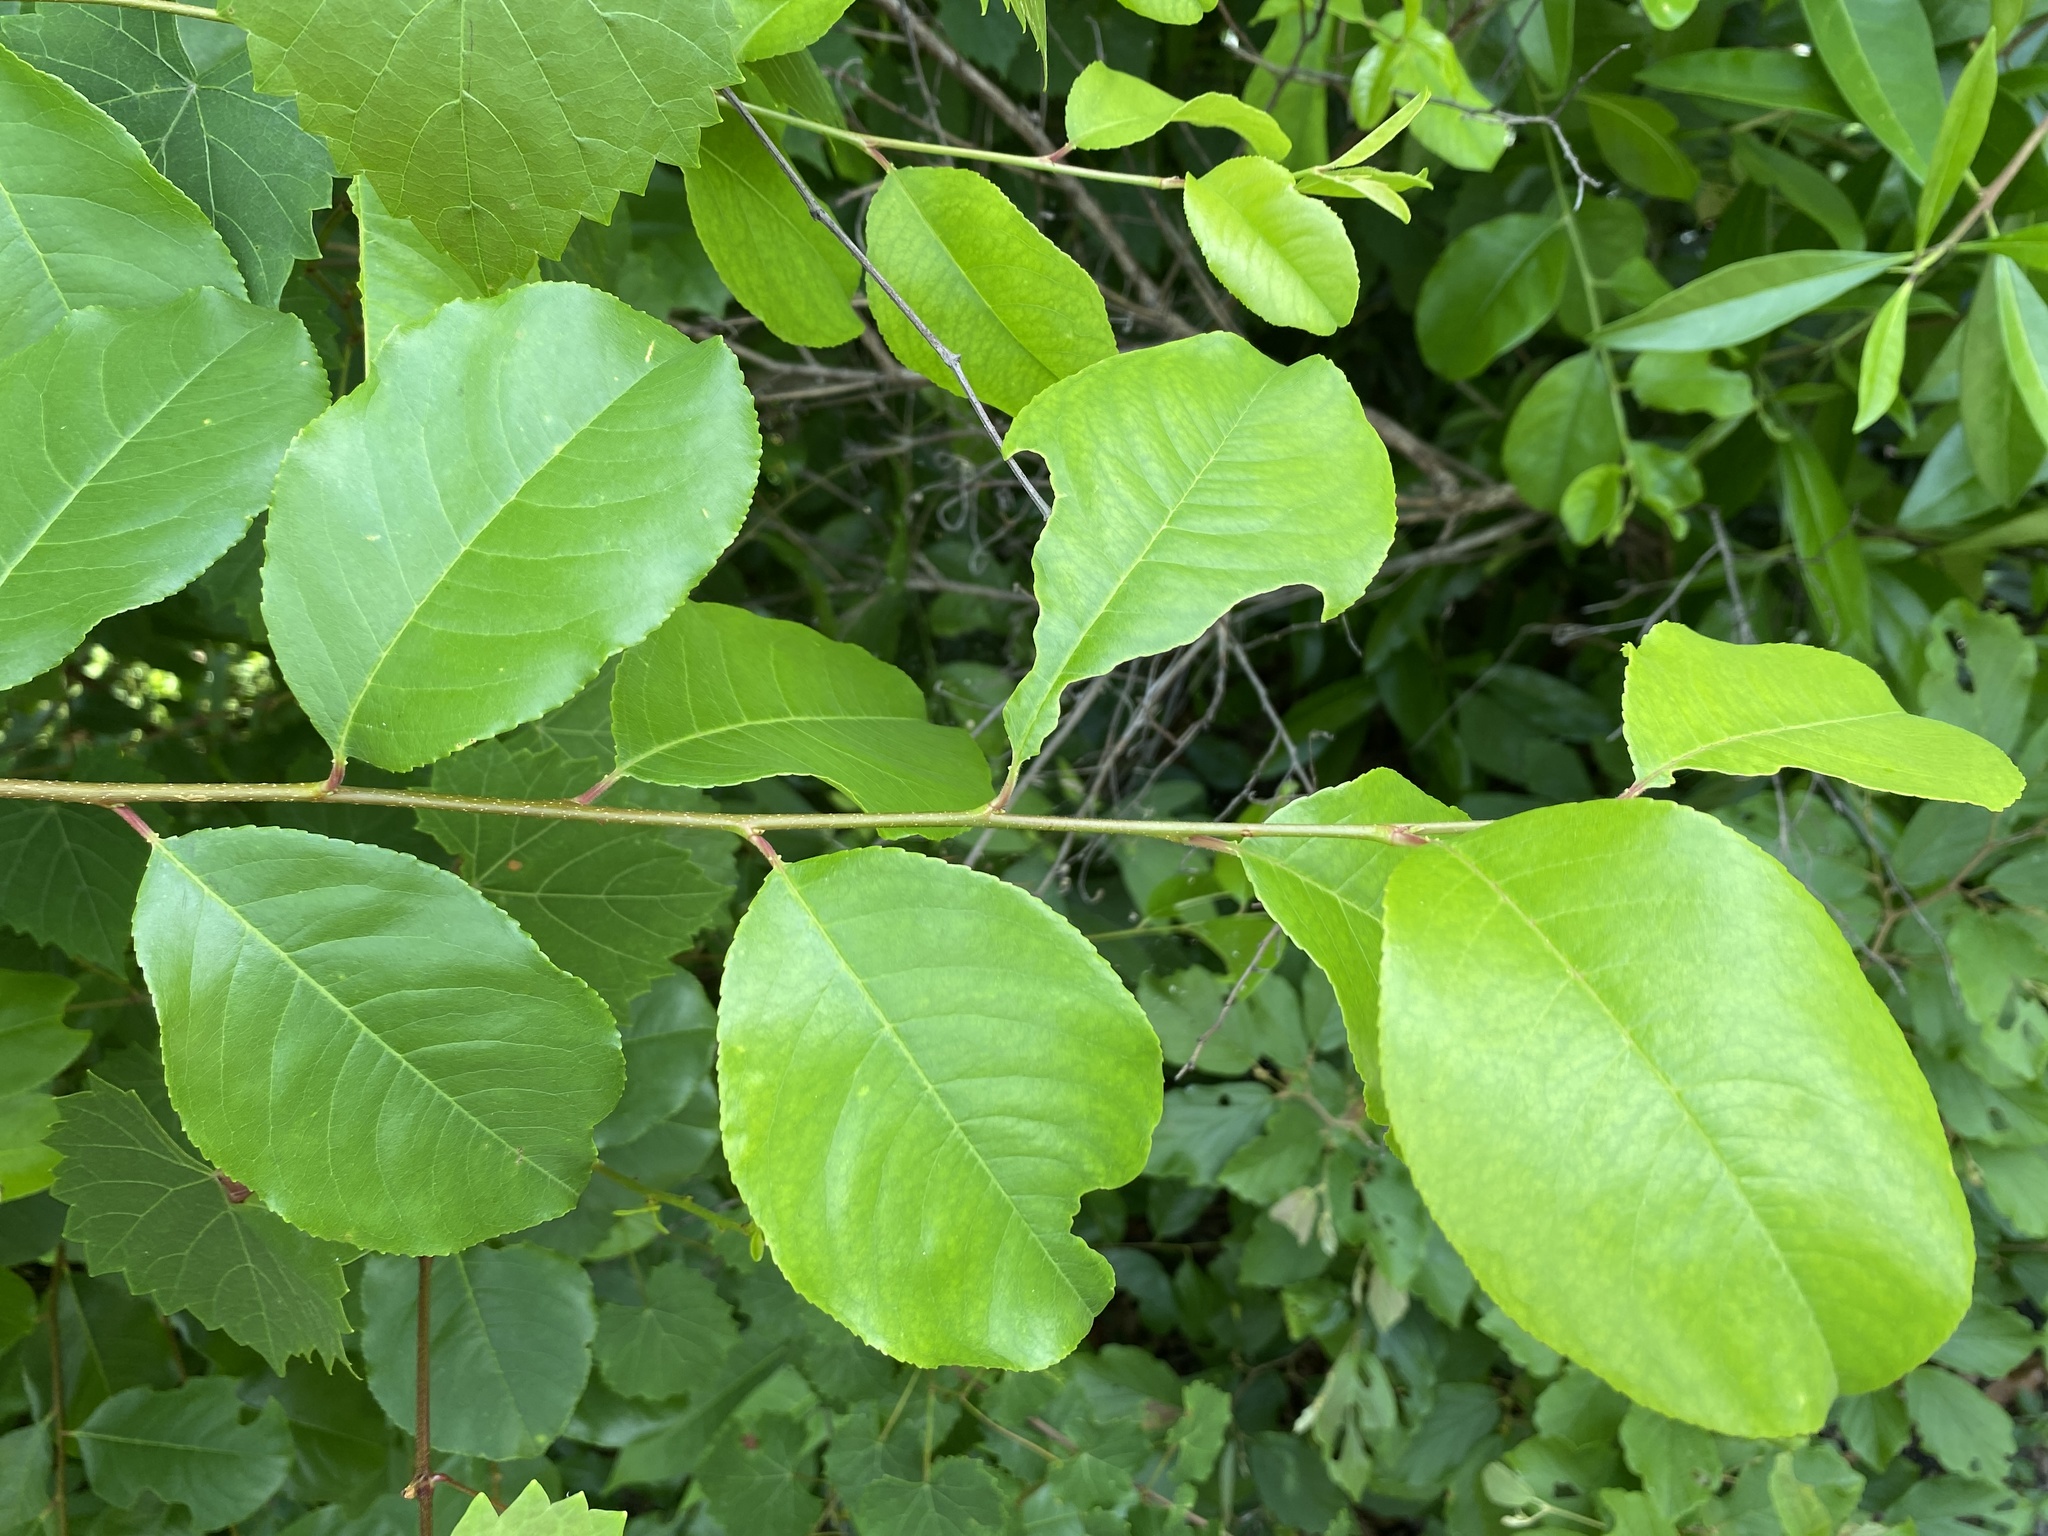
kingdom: Plantae
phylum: Tracheophyta
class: Magnoliopsida
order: Rosales
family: Rosaceae
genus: Prunus
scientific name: Prunus alabamensis
